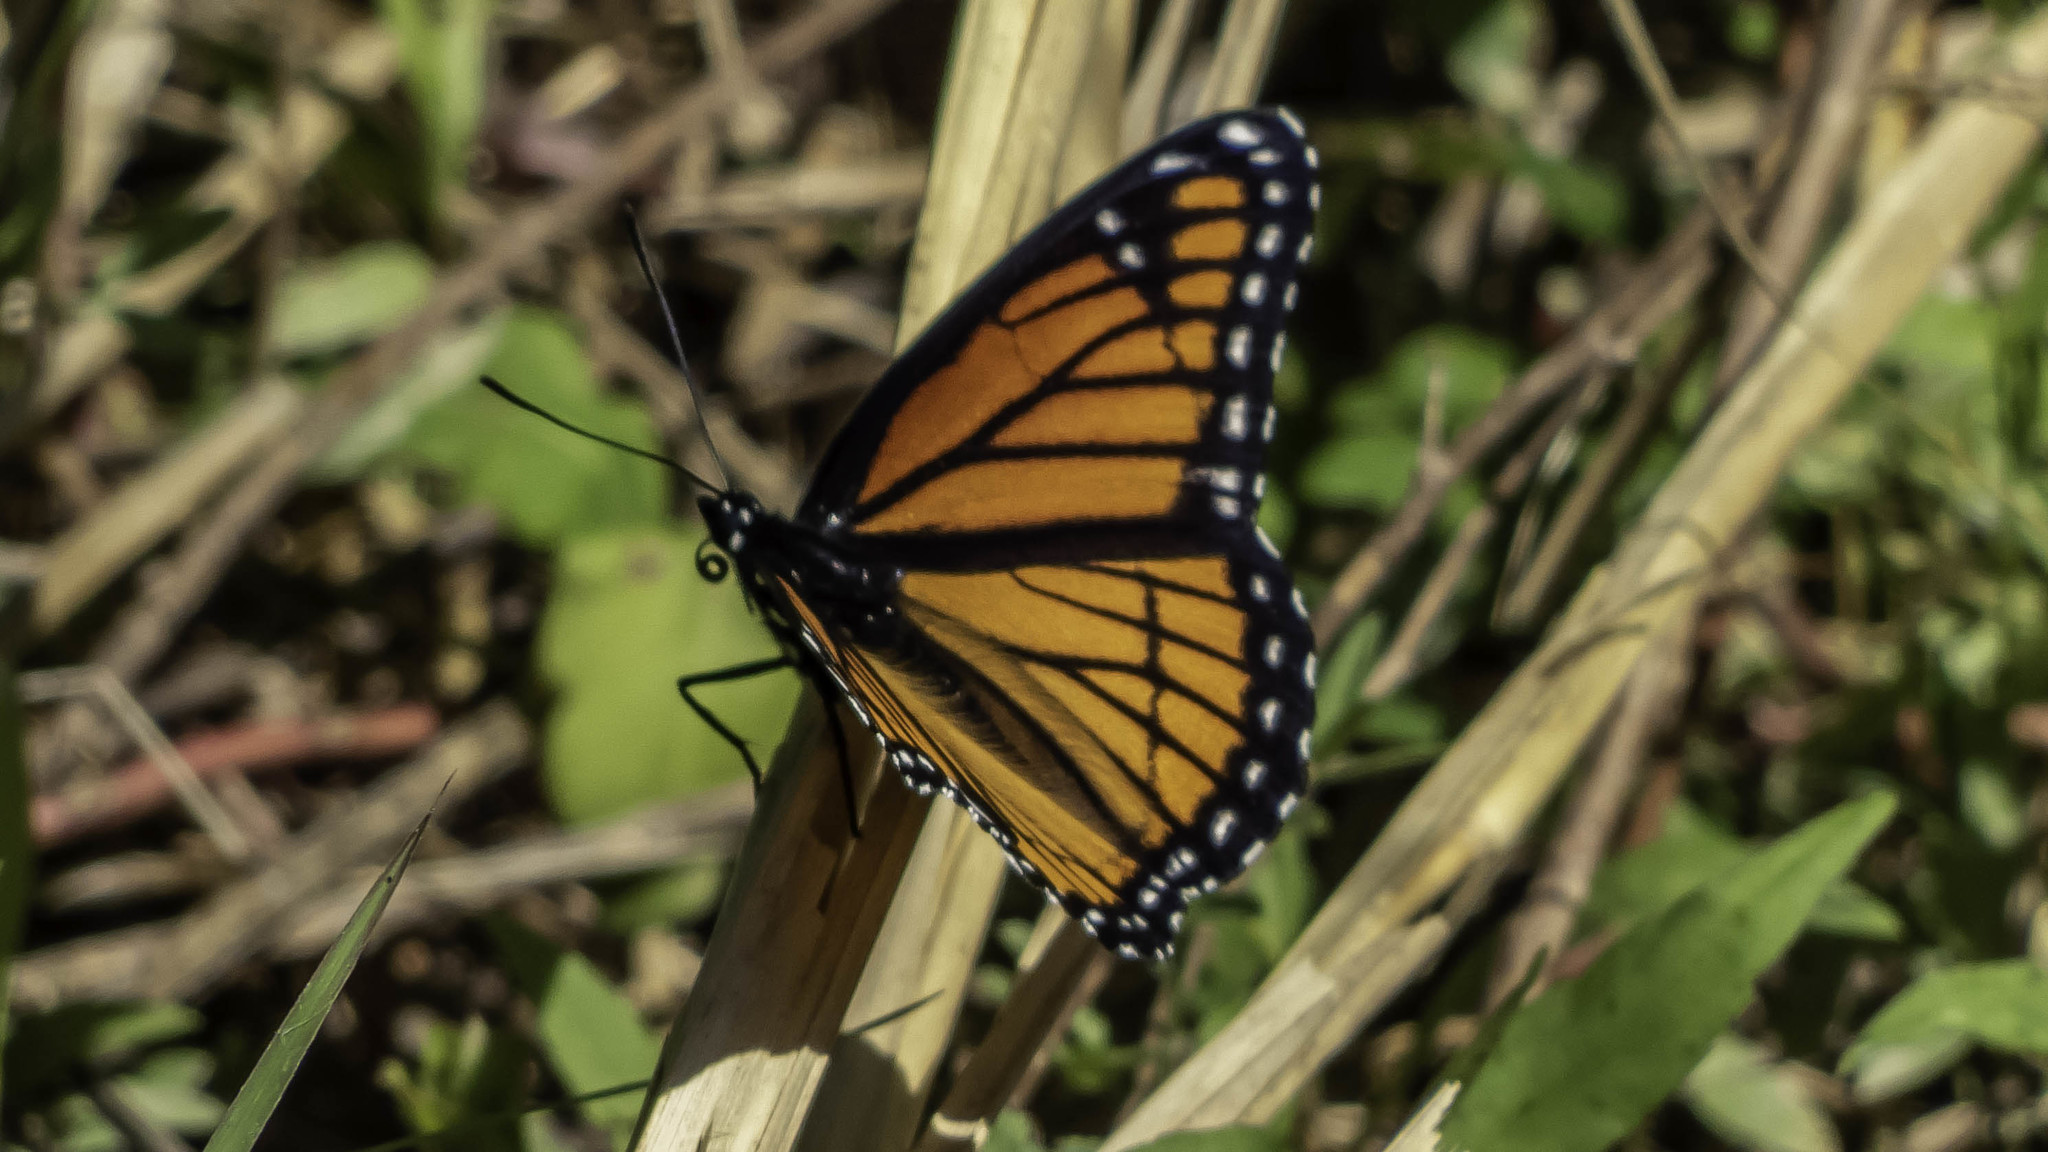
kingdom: Animalia
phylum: Arthropoda
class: Insecta
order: Lepidoptera
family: Nymphalidae
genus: Limenitis
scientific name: Limenitis archippus
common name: Viceroy
